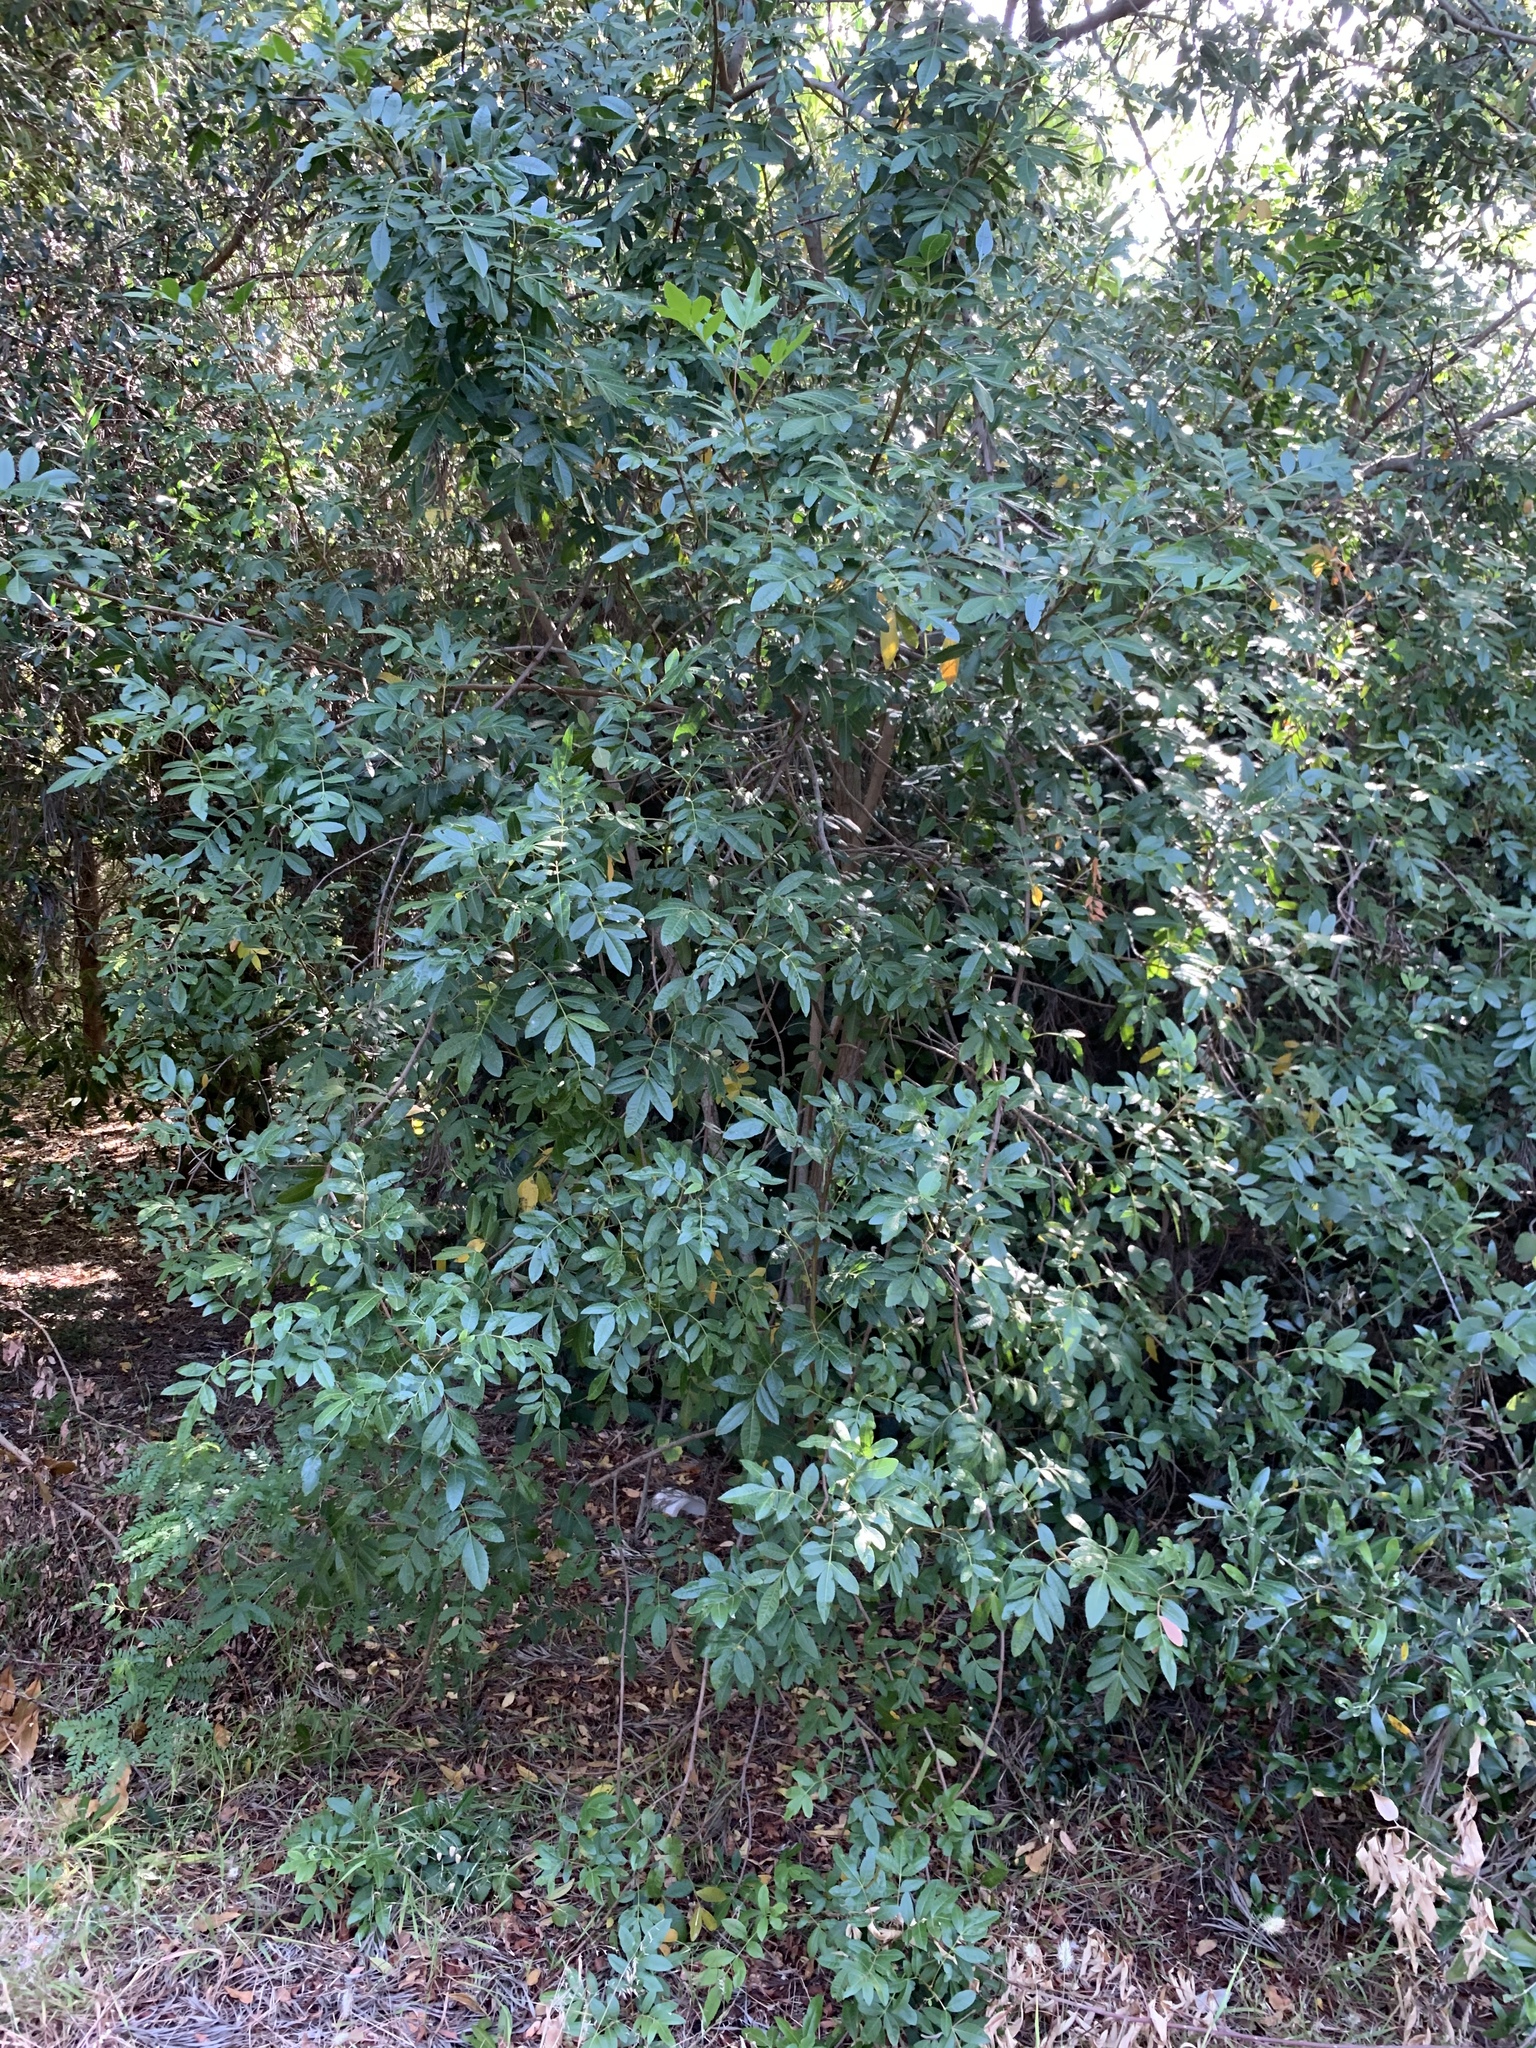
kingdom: Plantae
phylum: Tracheophyta
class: Magnoliopsida
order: Sapindales
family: Anacardiaceae
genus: Schinus
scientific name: Schinus terebinthifolia
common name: Brazilian peppertree
